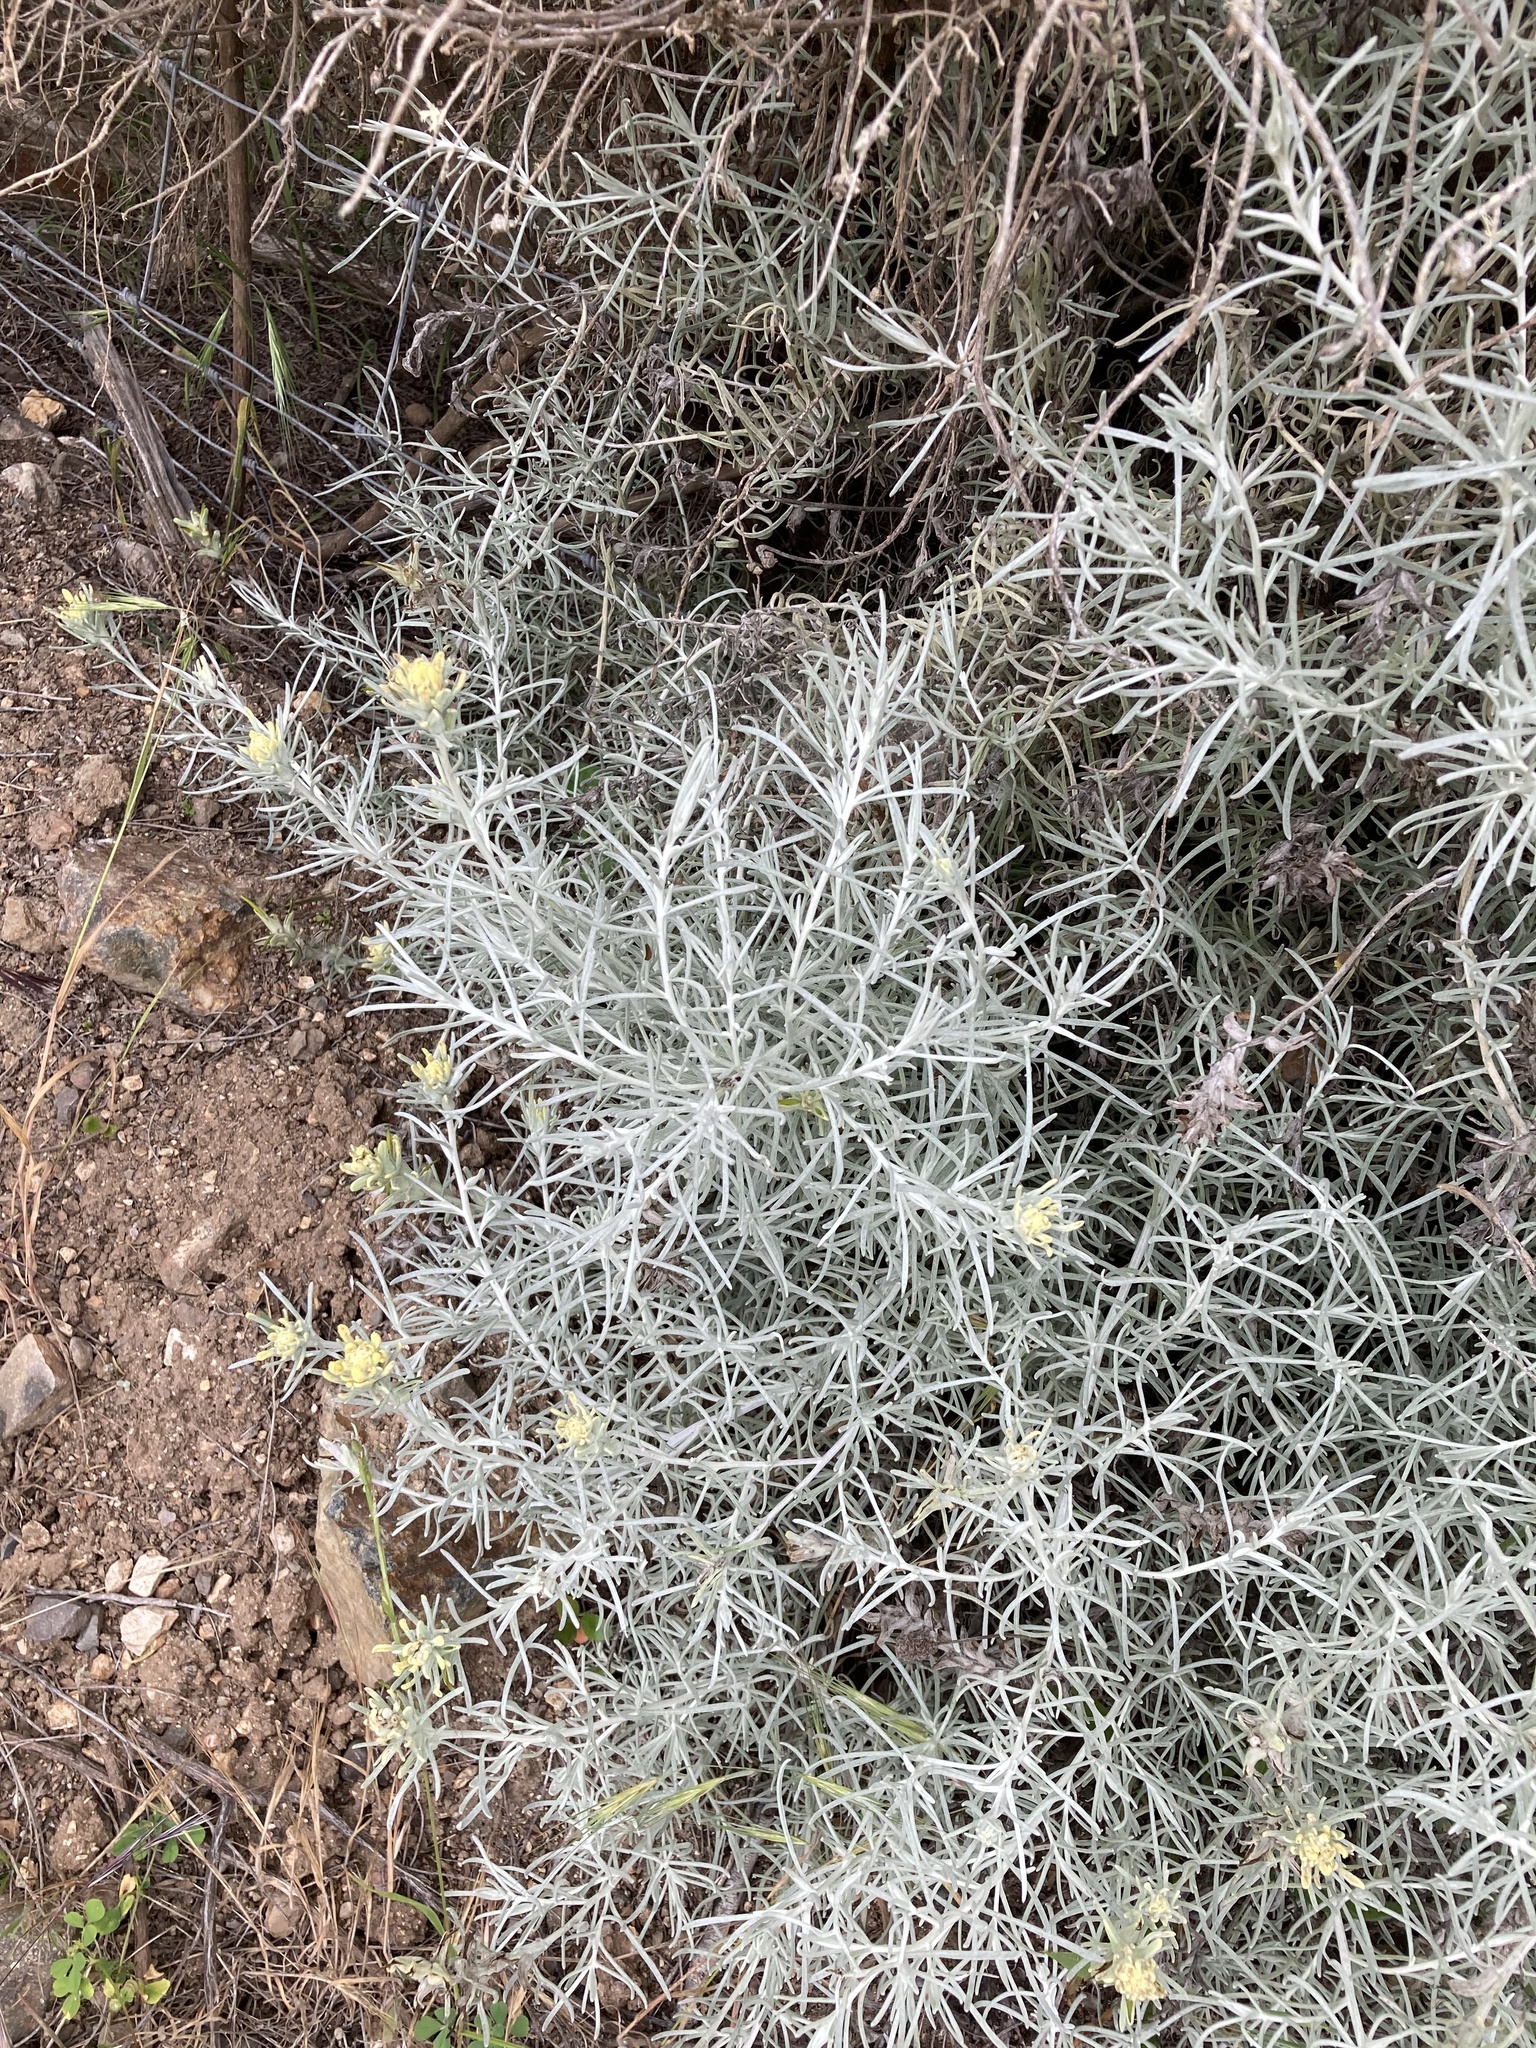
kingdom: Plantae
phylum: Tracheophyta
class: Magnoliopsida
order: Lamiales
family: Orobanchaceae
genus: Castilleja
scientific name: Castilleja hololeuca
